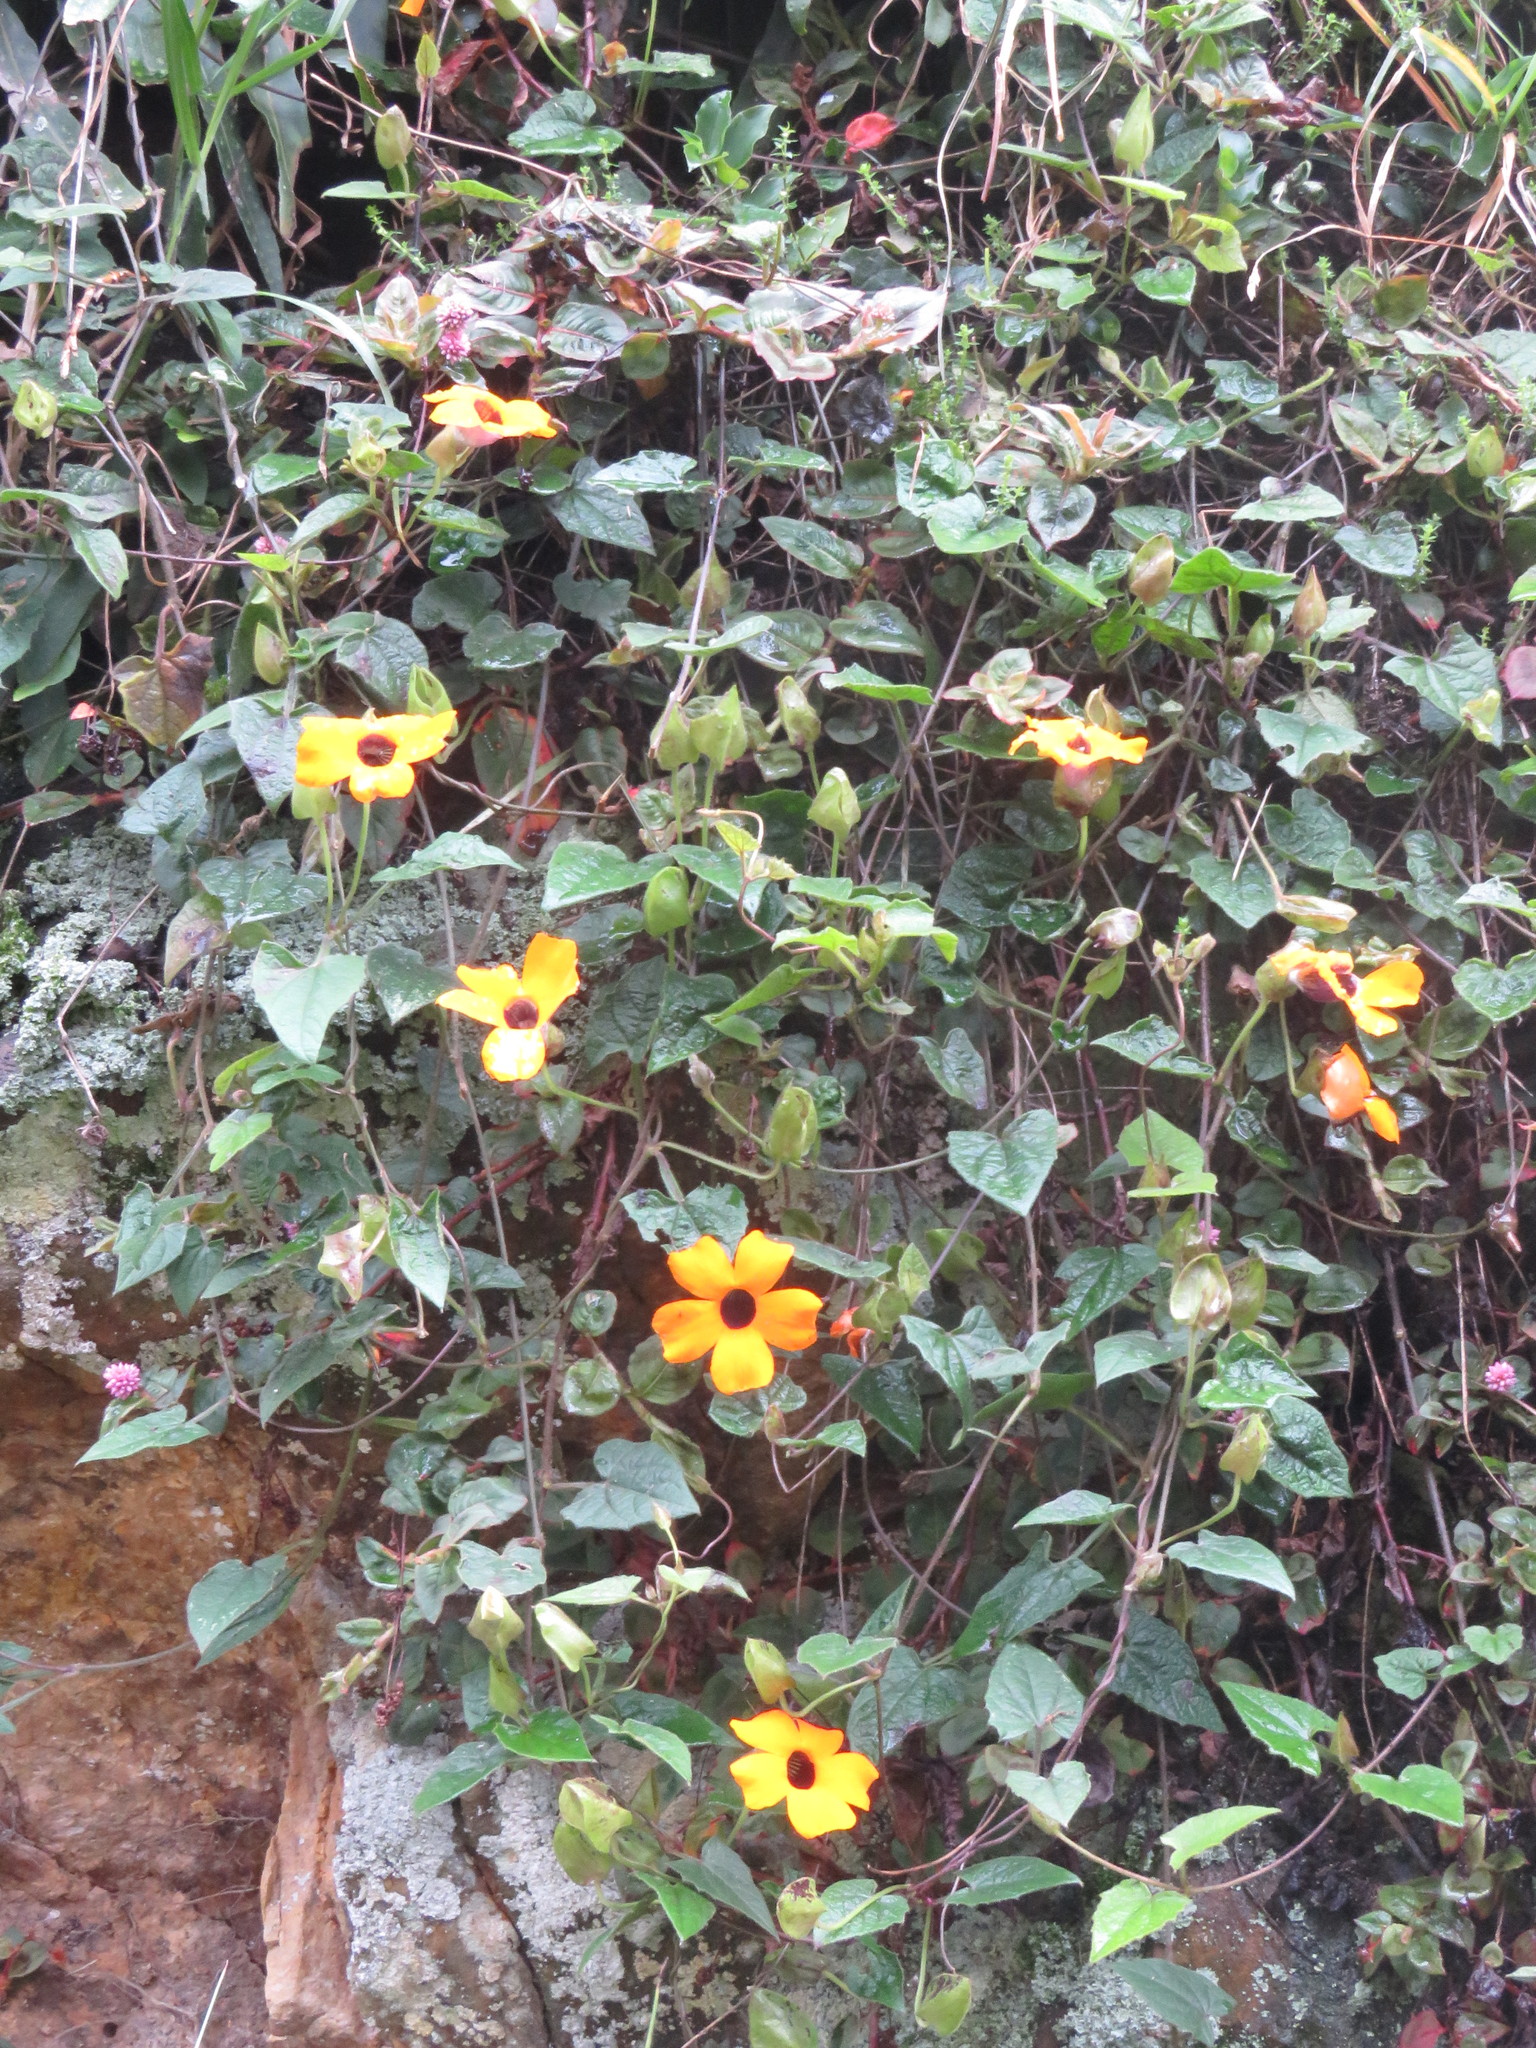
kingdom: Plantae
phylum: Tracheophyta
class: Magnoliopsida
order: Lamiales
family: Acanthaceae
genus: Thunbergia
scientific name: Thunbergia alata
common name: Blackeyed susan vine
